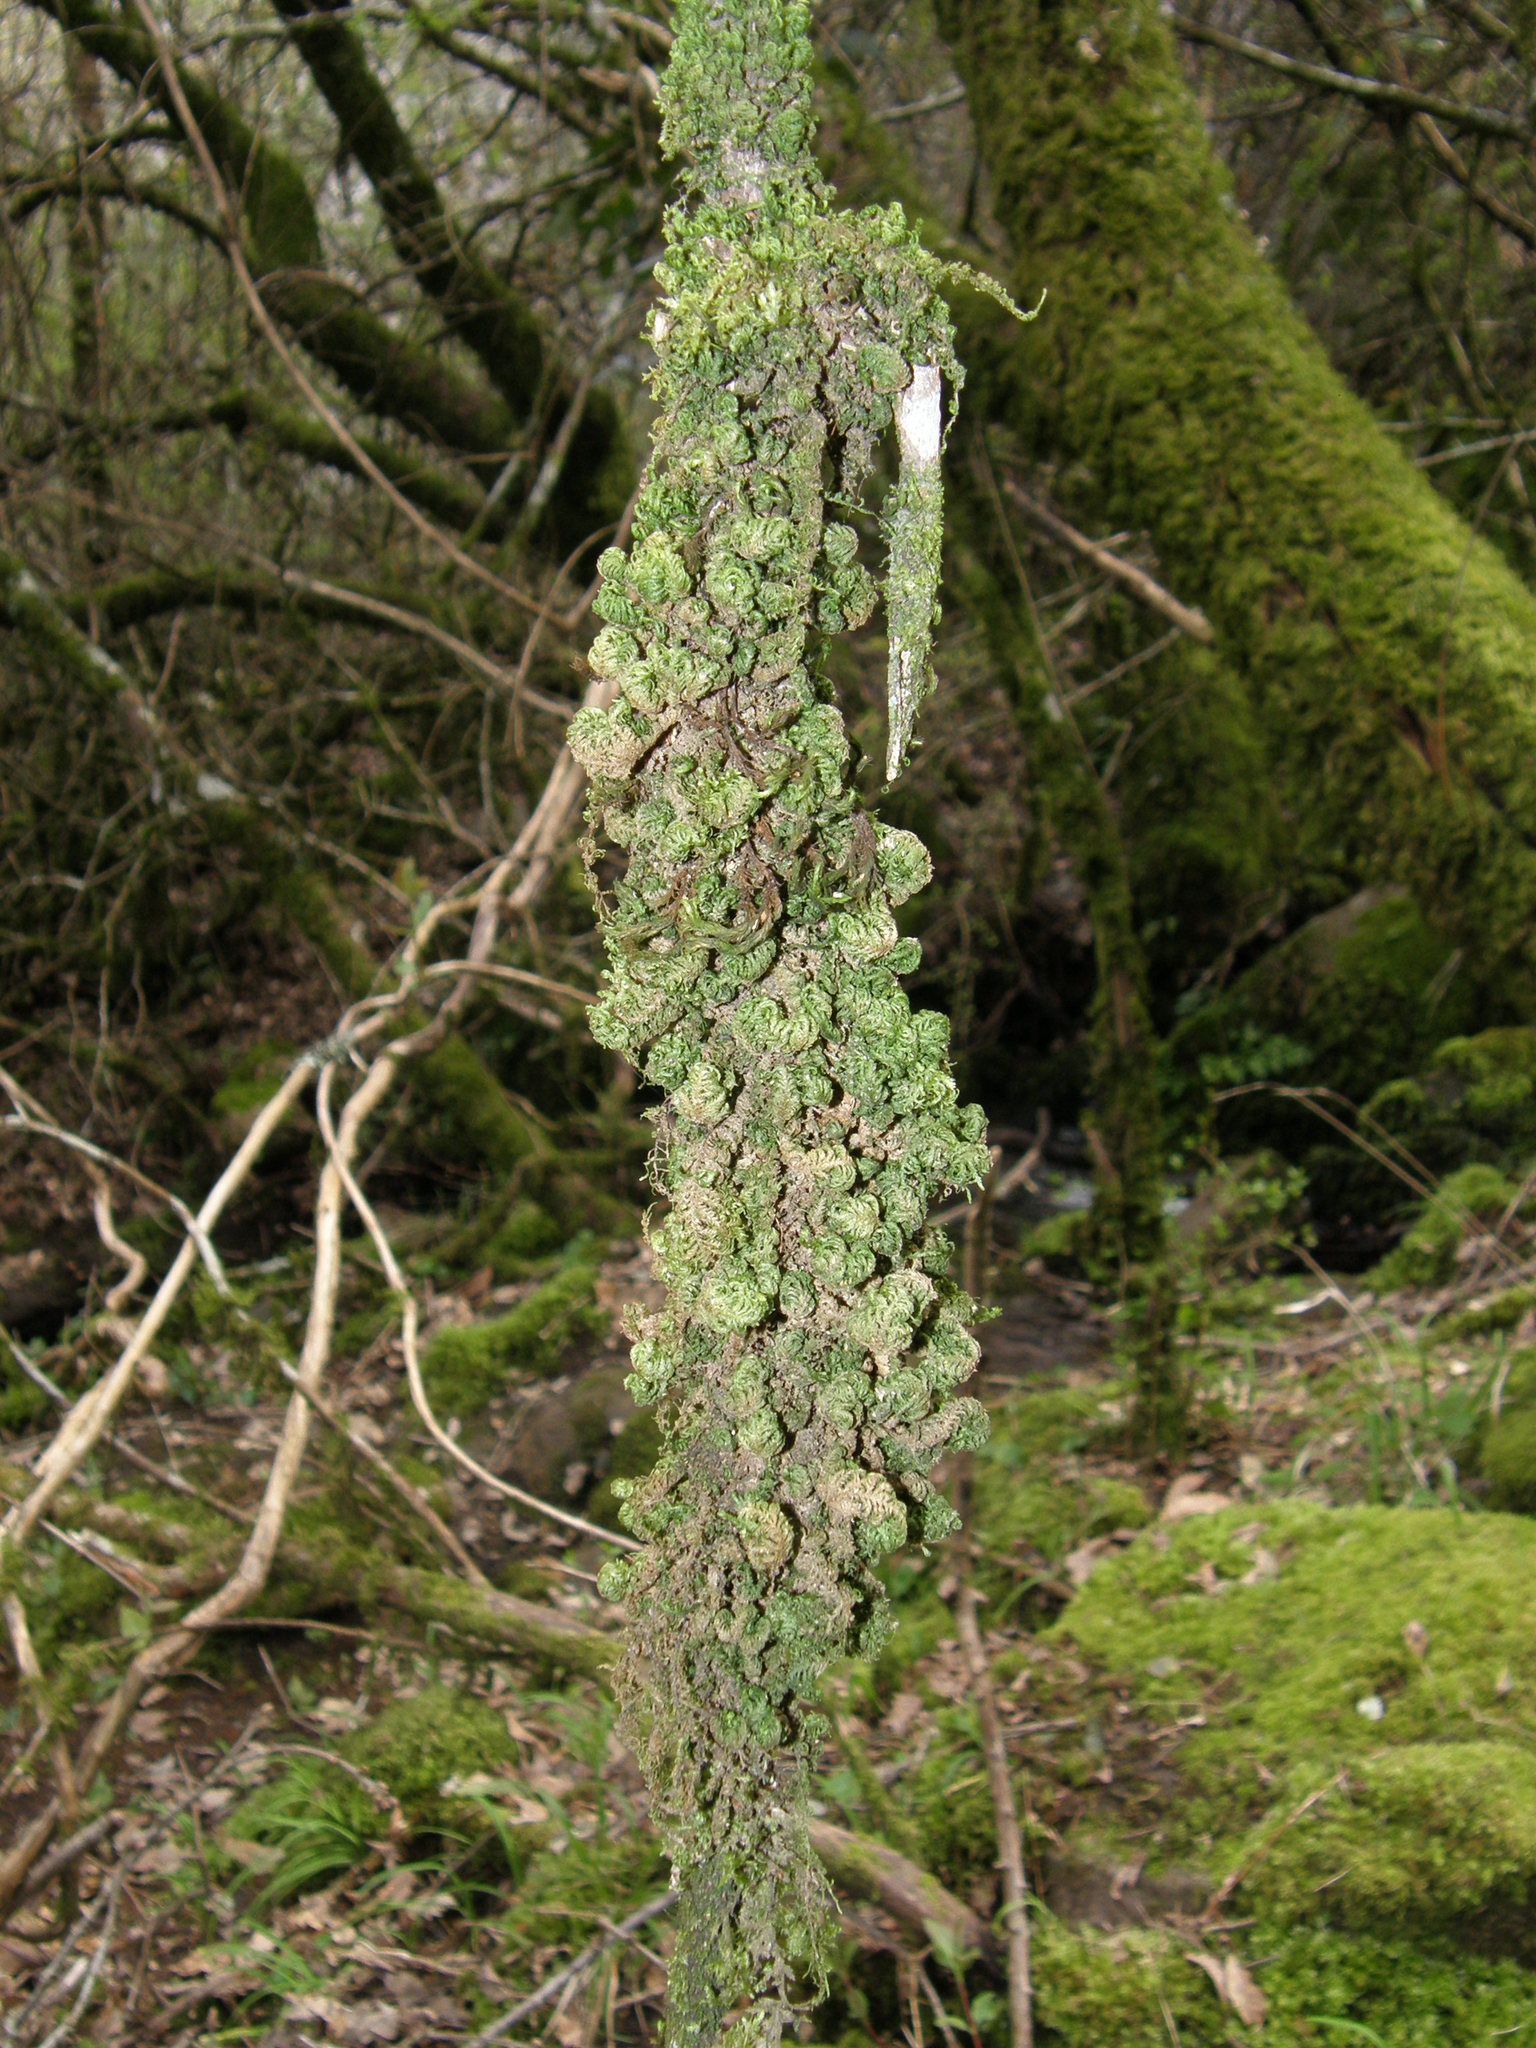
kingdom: Plantae
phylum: Bryophyta
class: Bryopsida
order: Hypnales
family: Neckeraceae
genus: Leptodon
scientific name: Leptodon smithii
